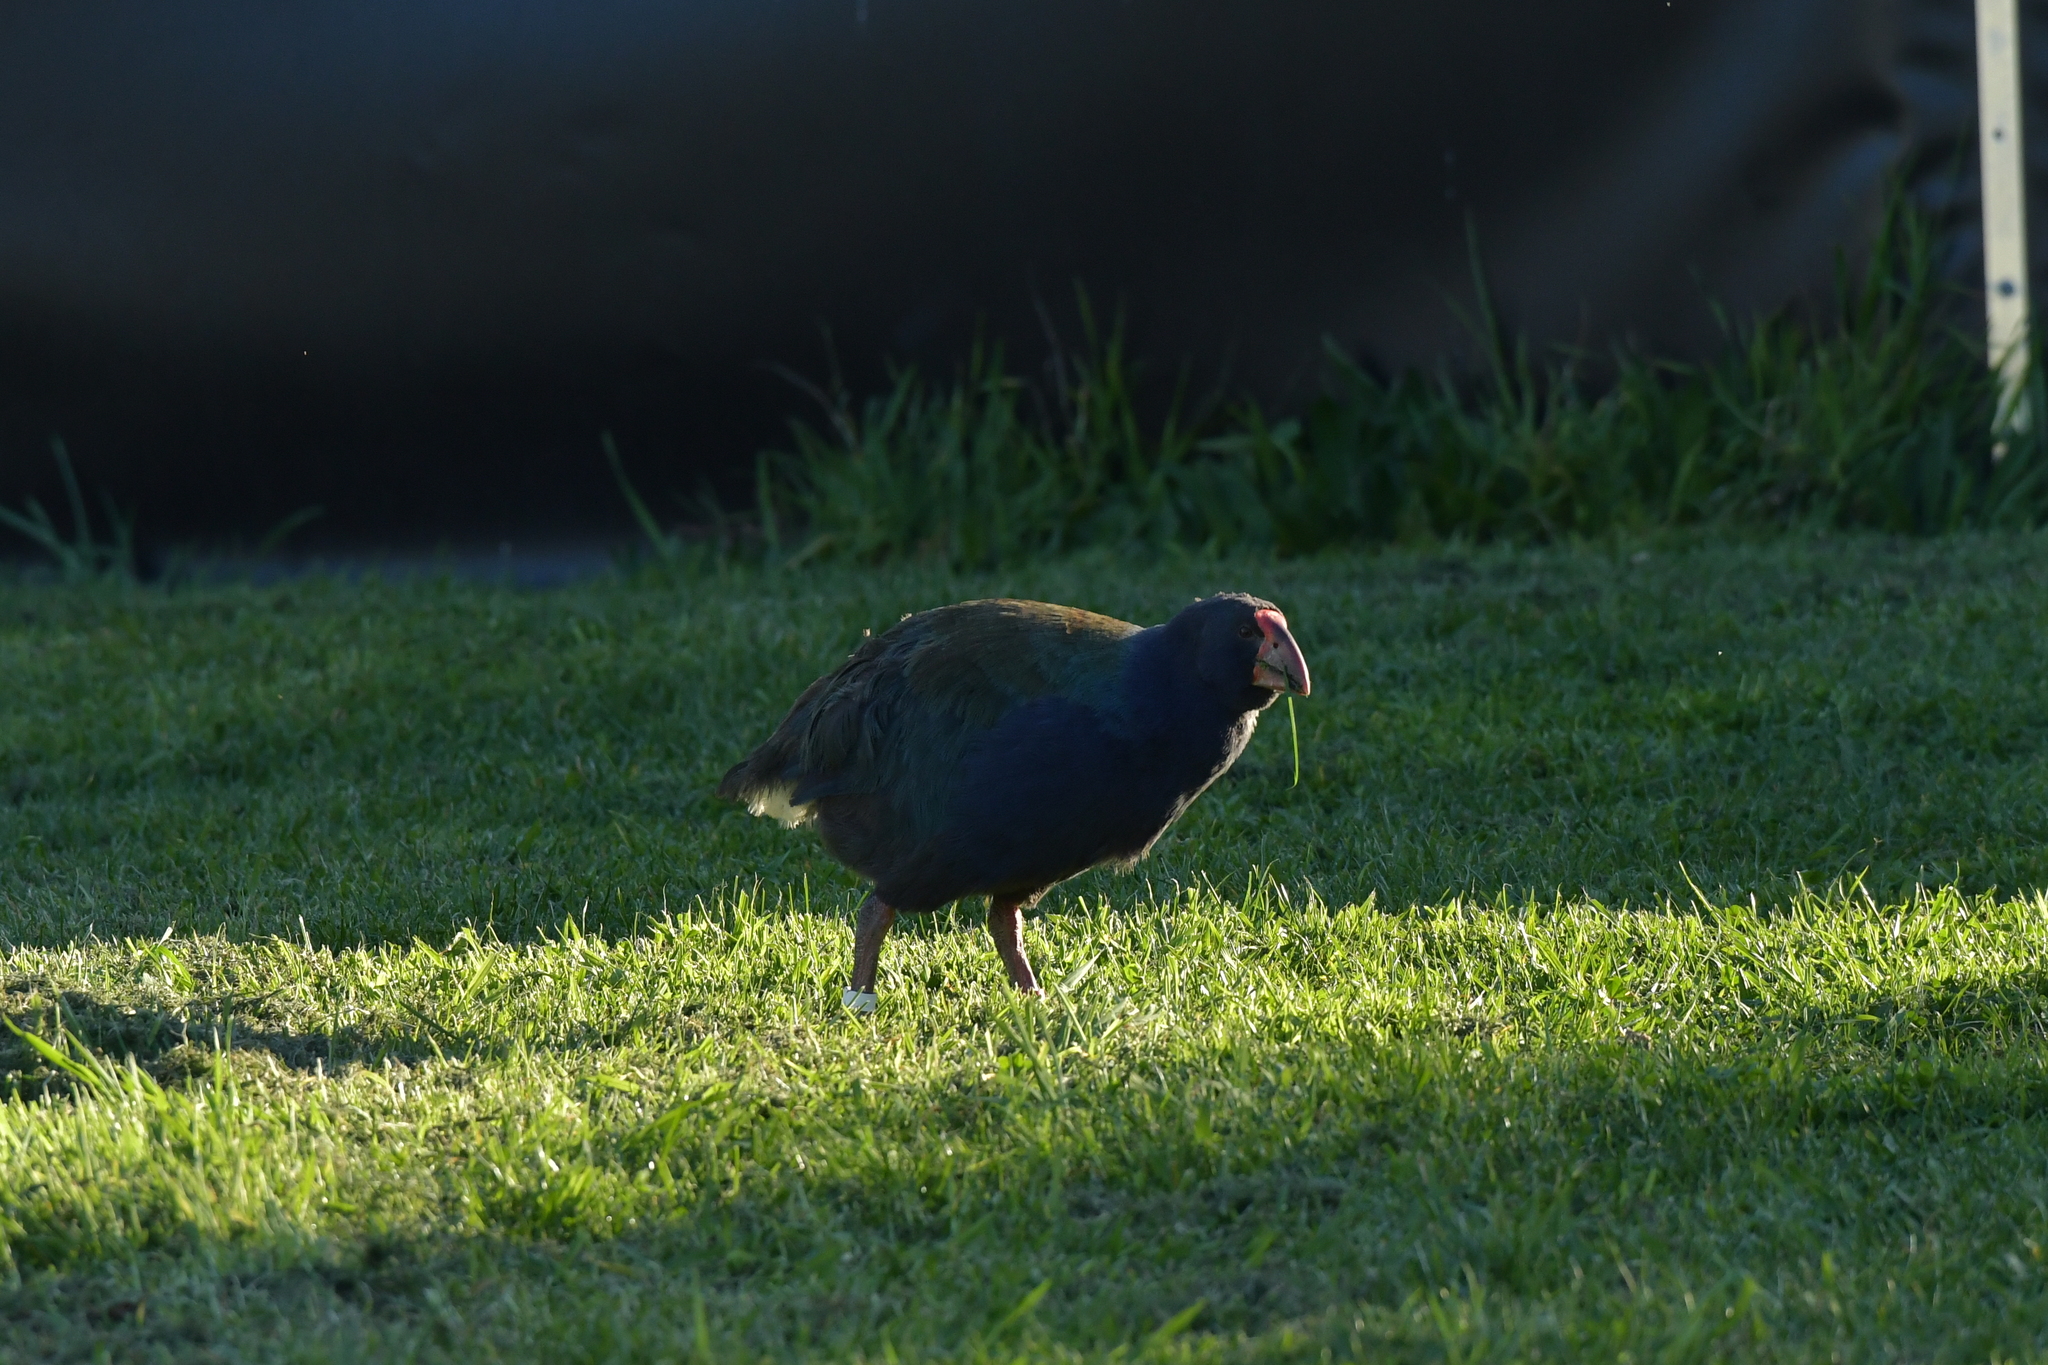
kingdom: Animalia
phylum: Chordata
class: Aves
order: Gruiformes
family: Rallidae
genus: Porphyrio
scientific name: Porphyrio hochstetteri
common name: South island takahe
